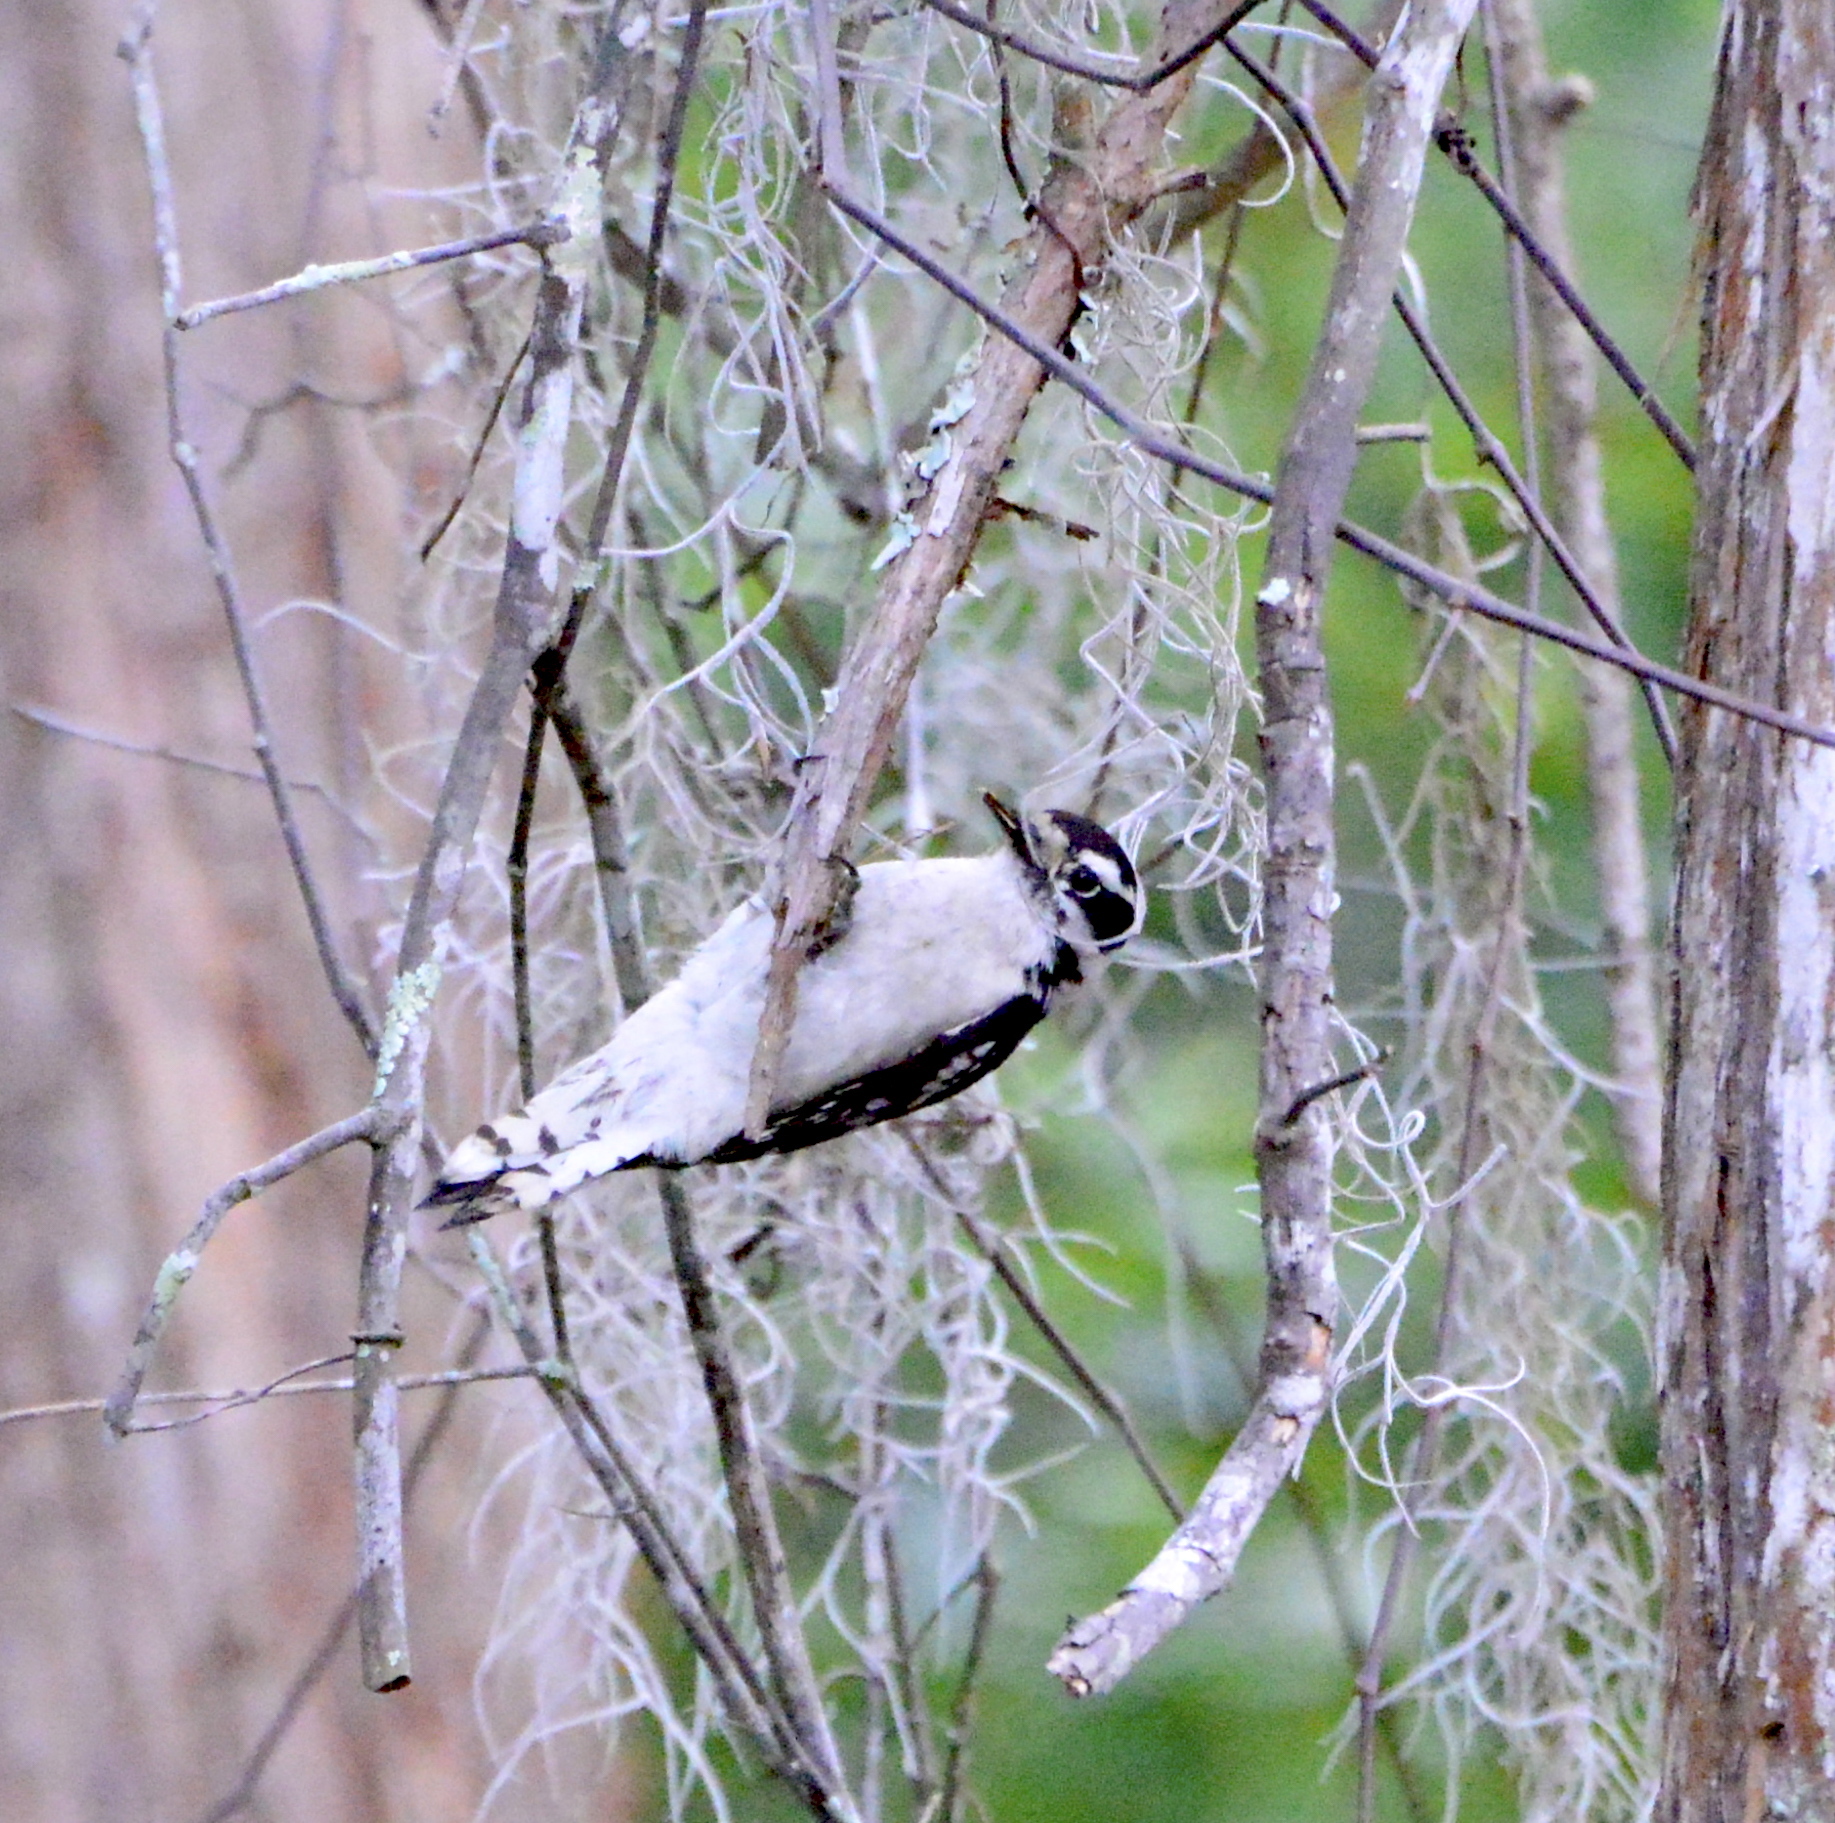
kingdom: Animalia
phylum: Chordata
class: Aves
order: Piciformes
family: Picidae
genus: Dryobates
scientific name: Dryobates pubescens
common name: Downy woodpecker
